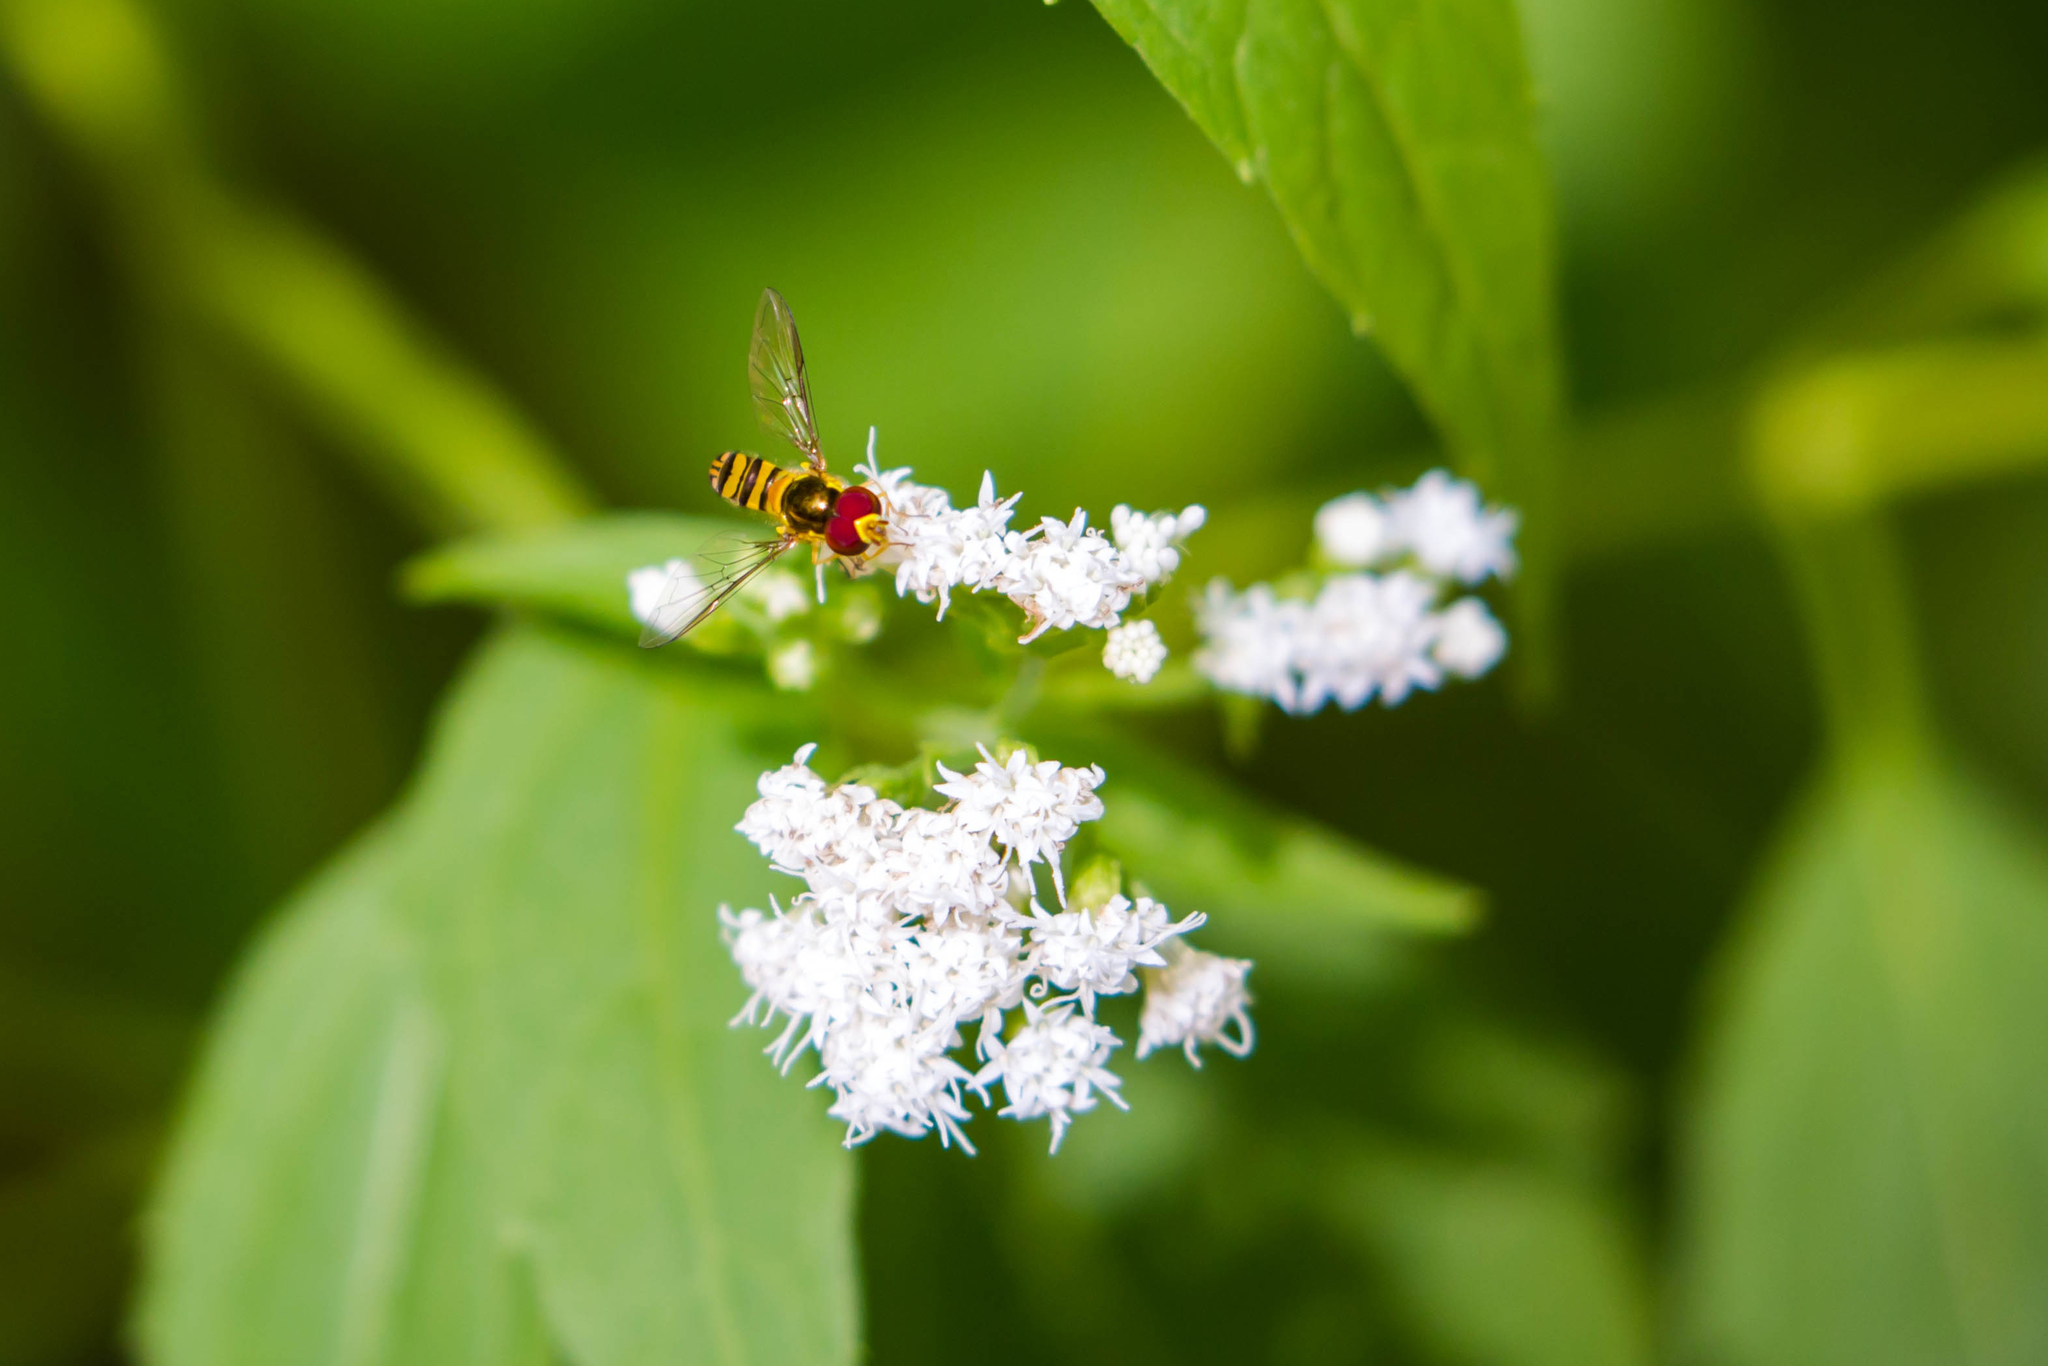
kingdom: Animalia
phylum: Arthropoda
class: Insecta
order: Diptera
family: Syrphidae
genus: Allograpta
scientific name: Allograpta obliqua
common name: Common oblique syrphid
